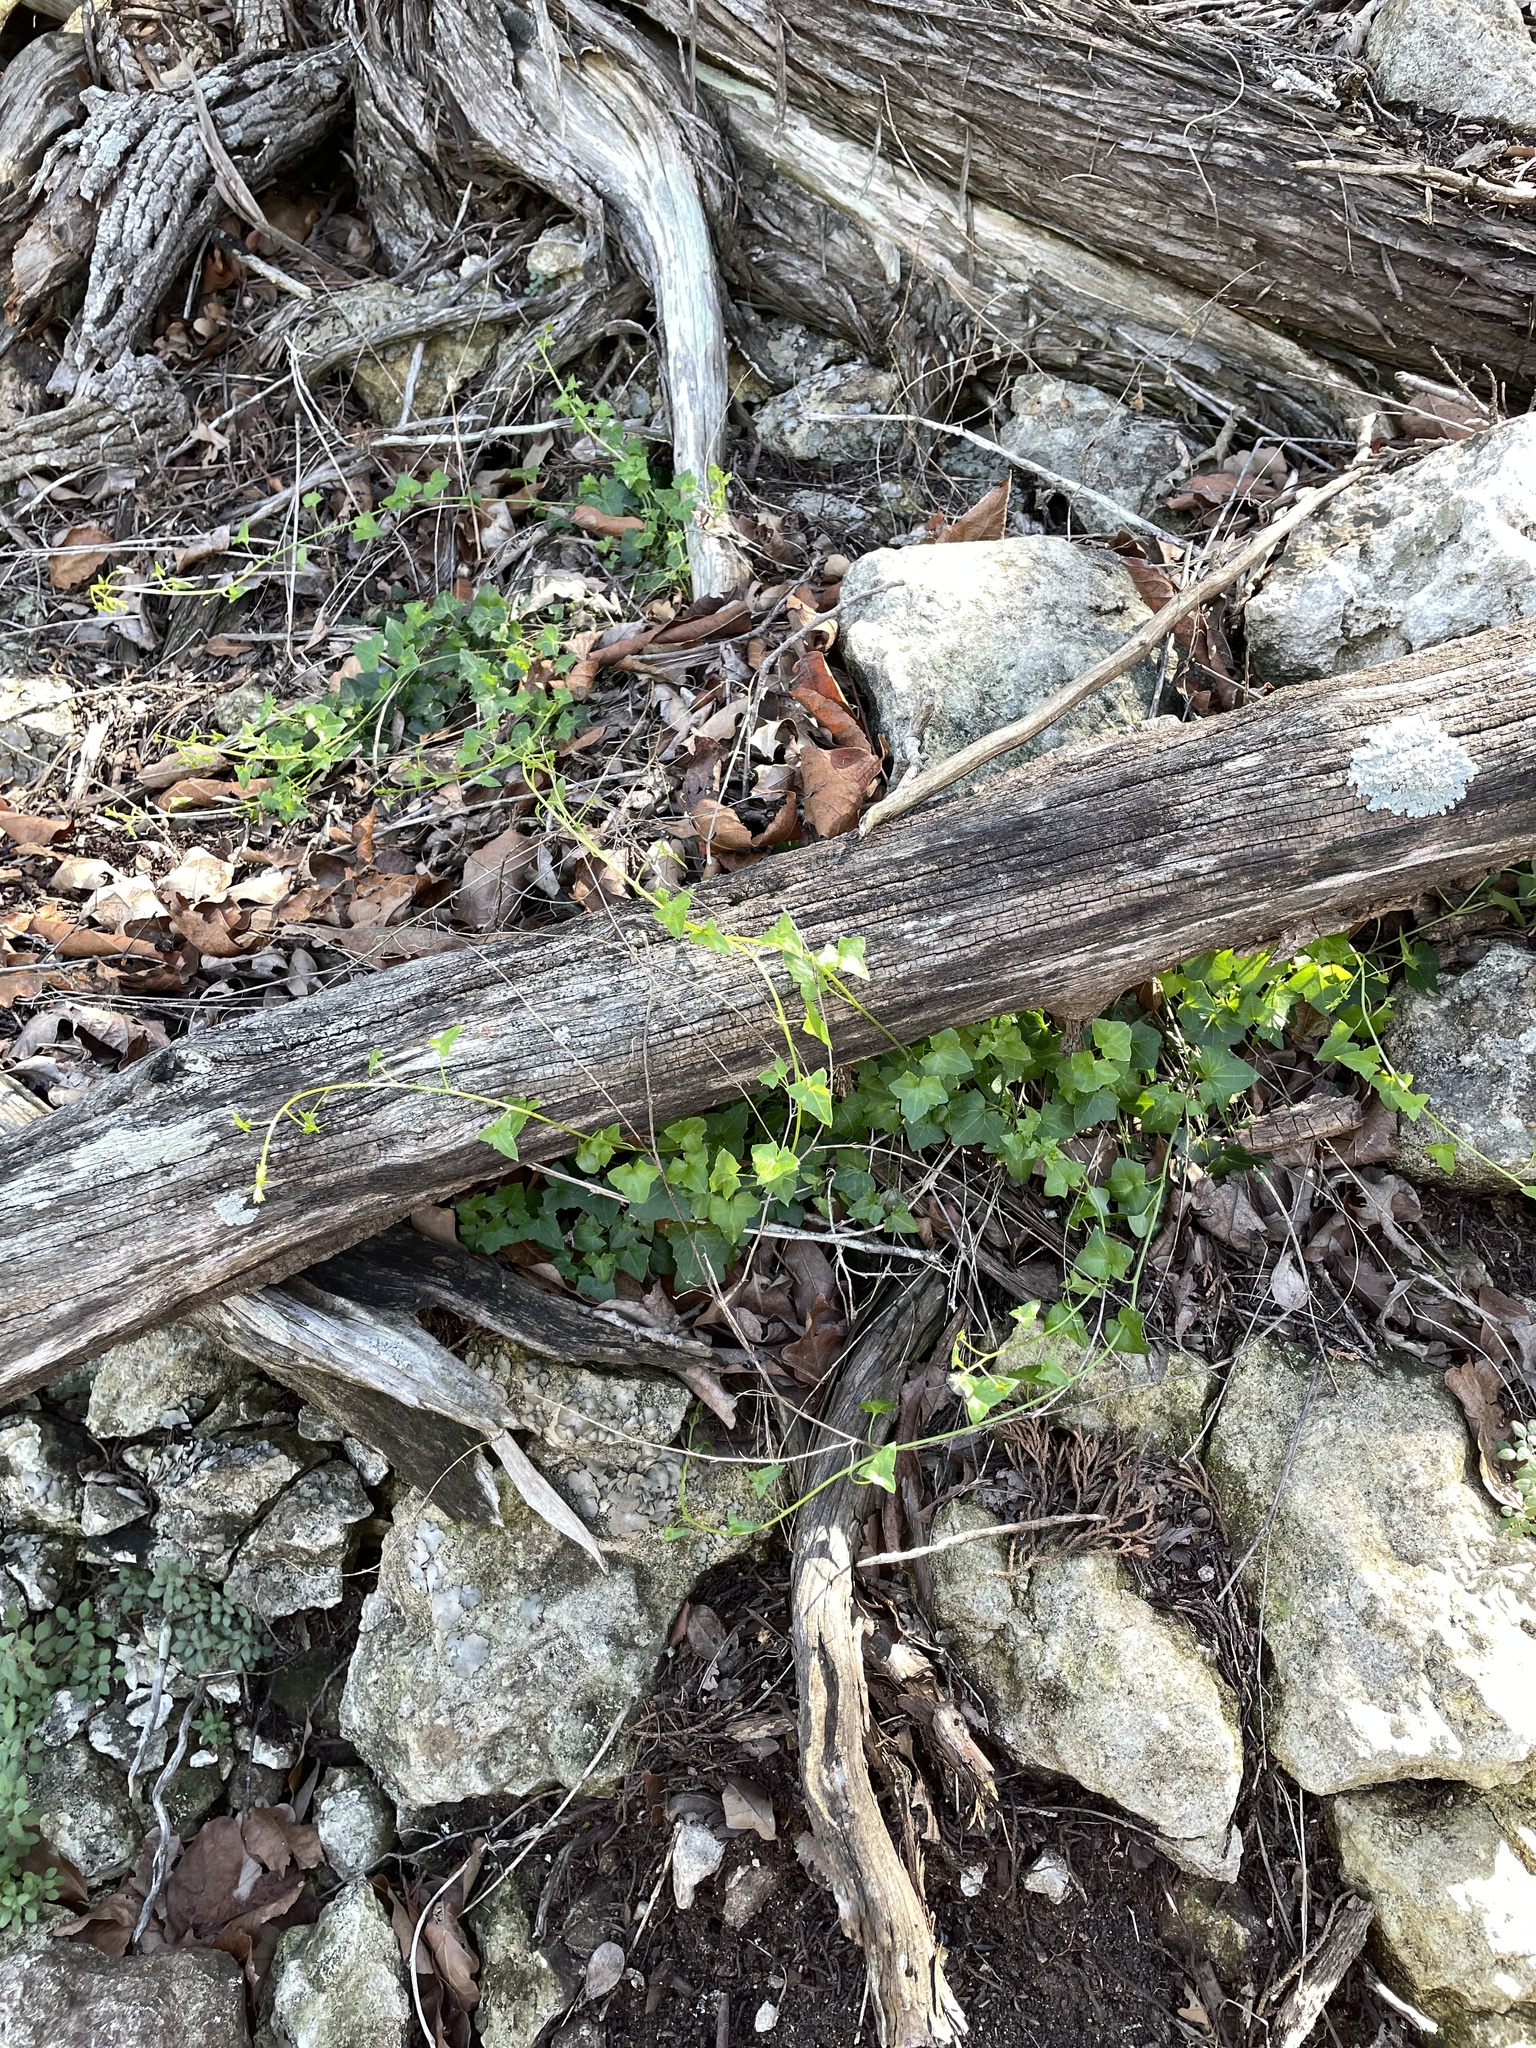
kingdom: Plantae
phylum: Tracheophyta
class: Magnoliopsida
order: Lamiales
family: Plantaginaceae
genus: Maurandella
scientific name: Maurandella antirrhiniflora
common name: Violet twining-snapdragon
